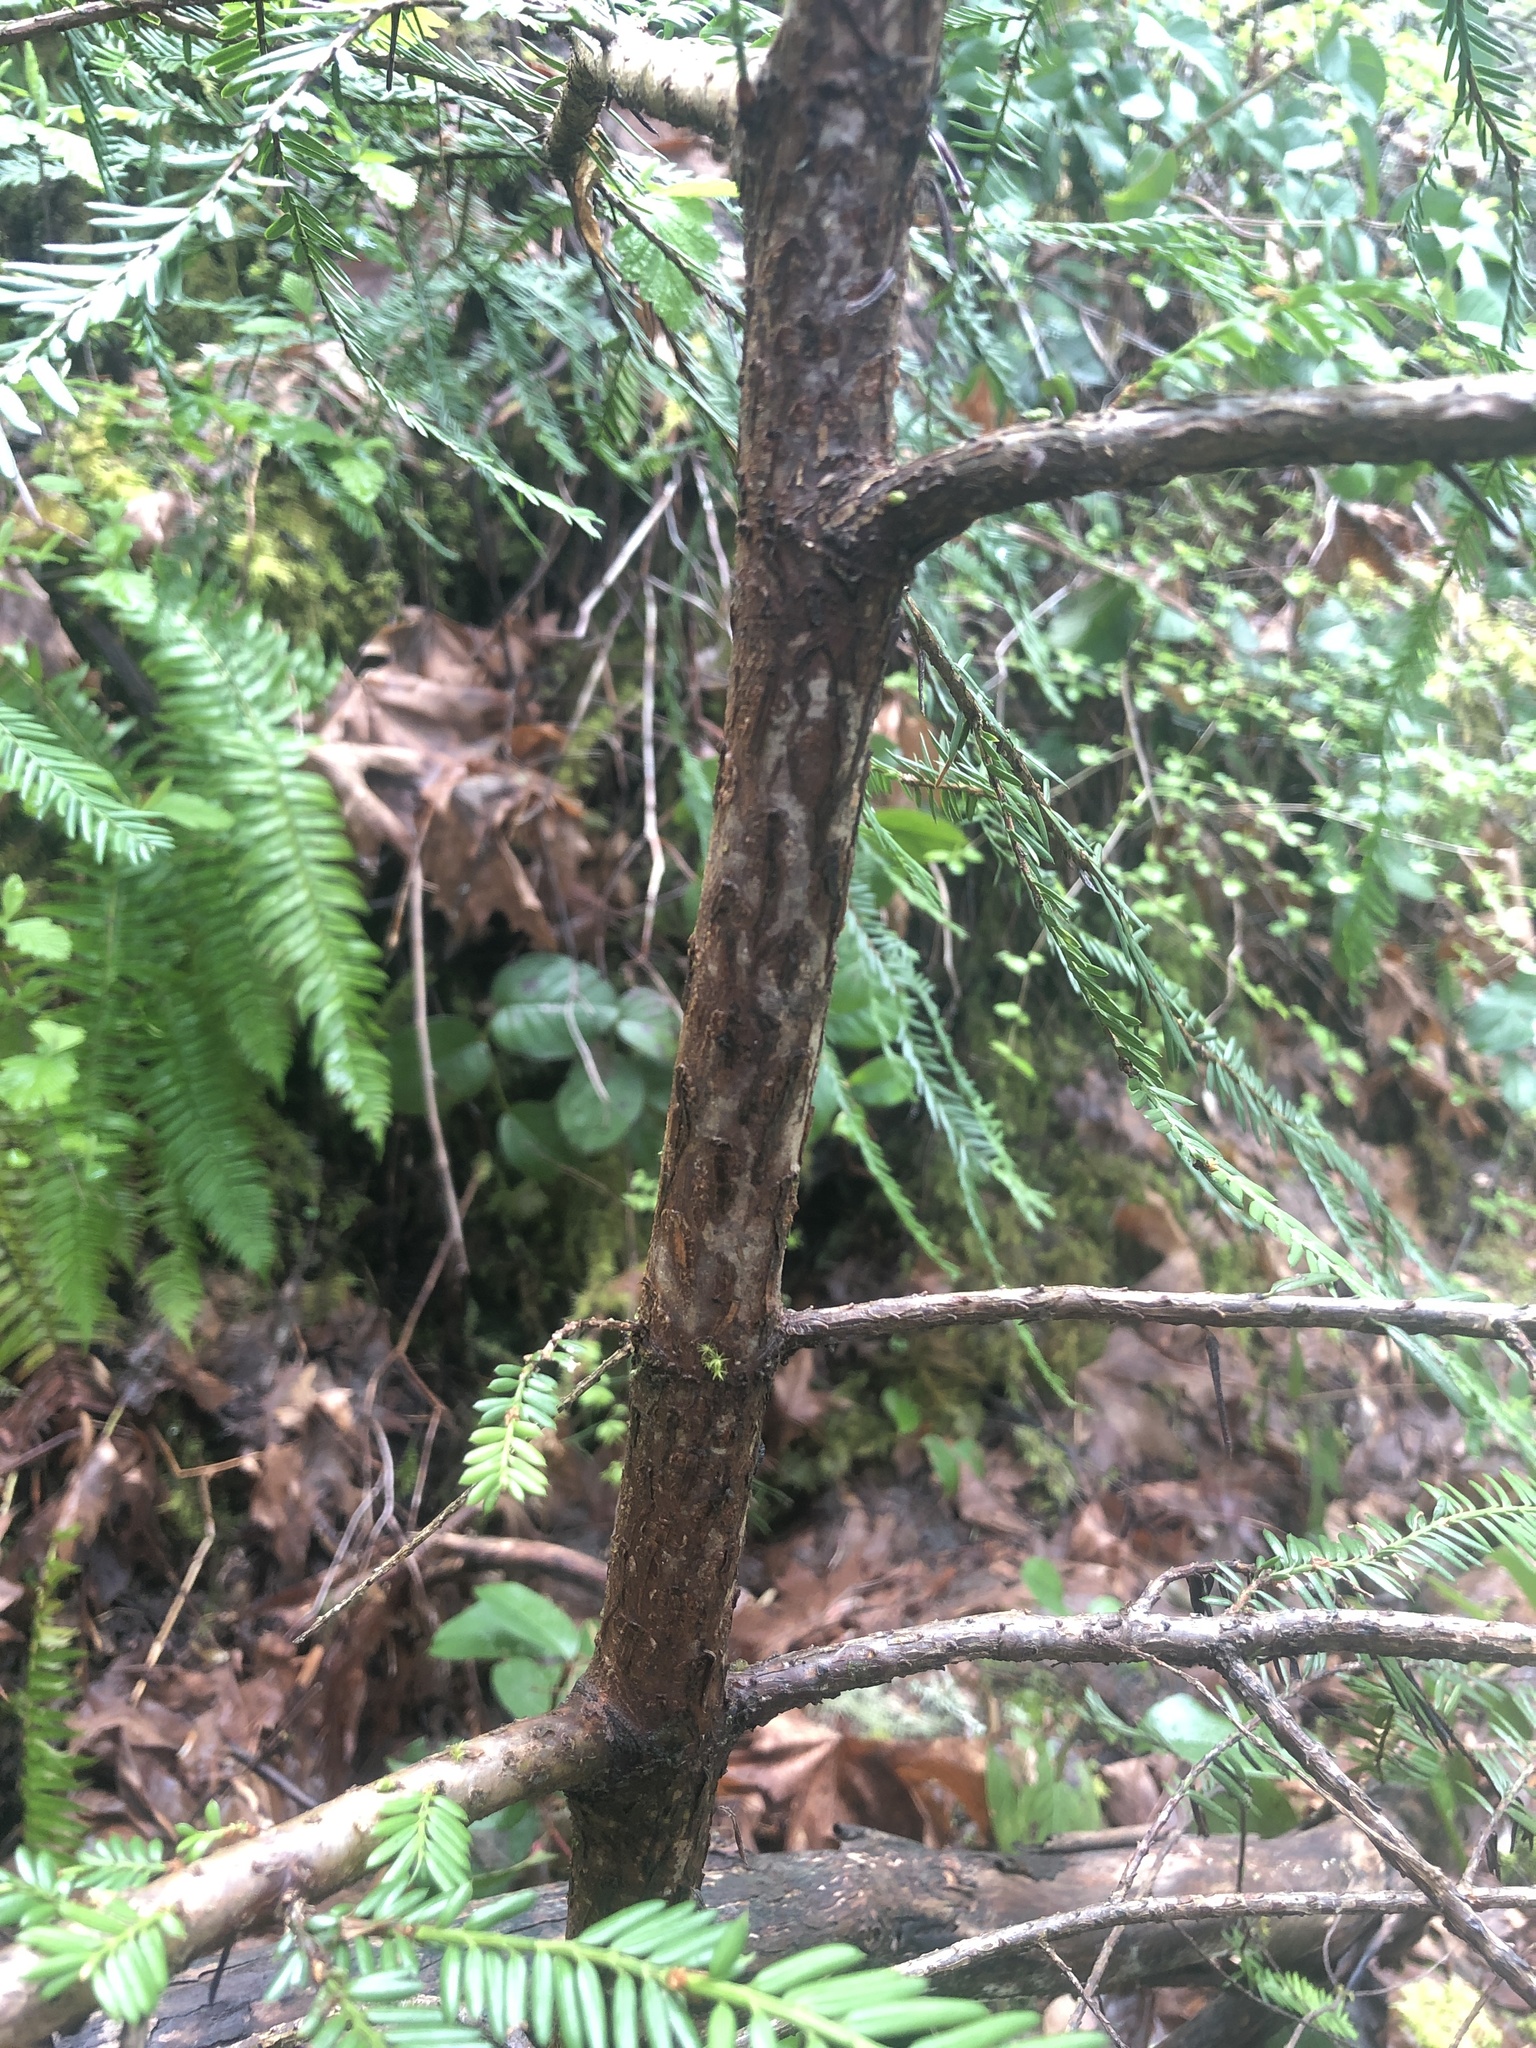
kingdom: Plantae
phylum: Tracheophyta
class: Pinopsida
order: Pinales
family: Taxaceae
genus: Taxus
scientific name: Taxus brevifolia
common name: Pacific yew
